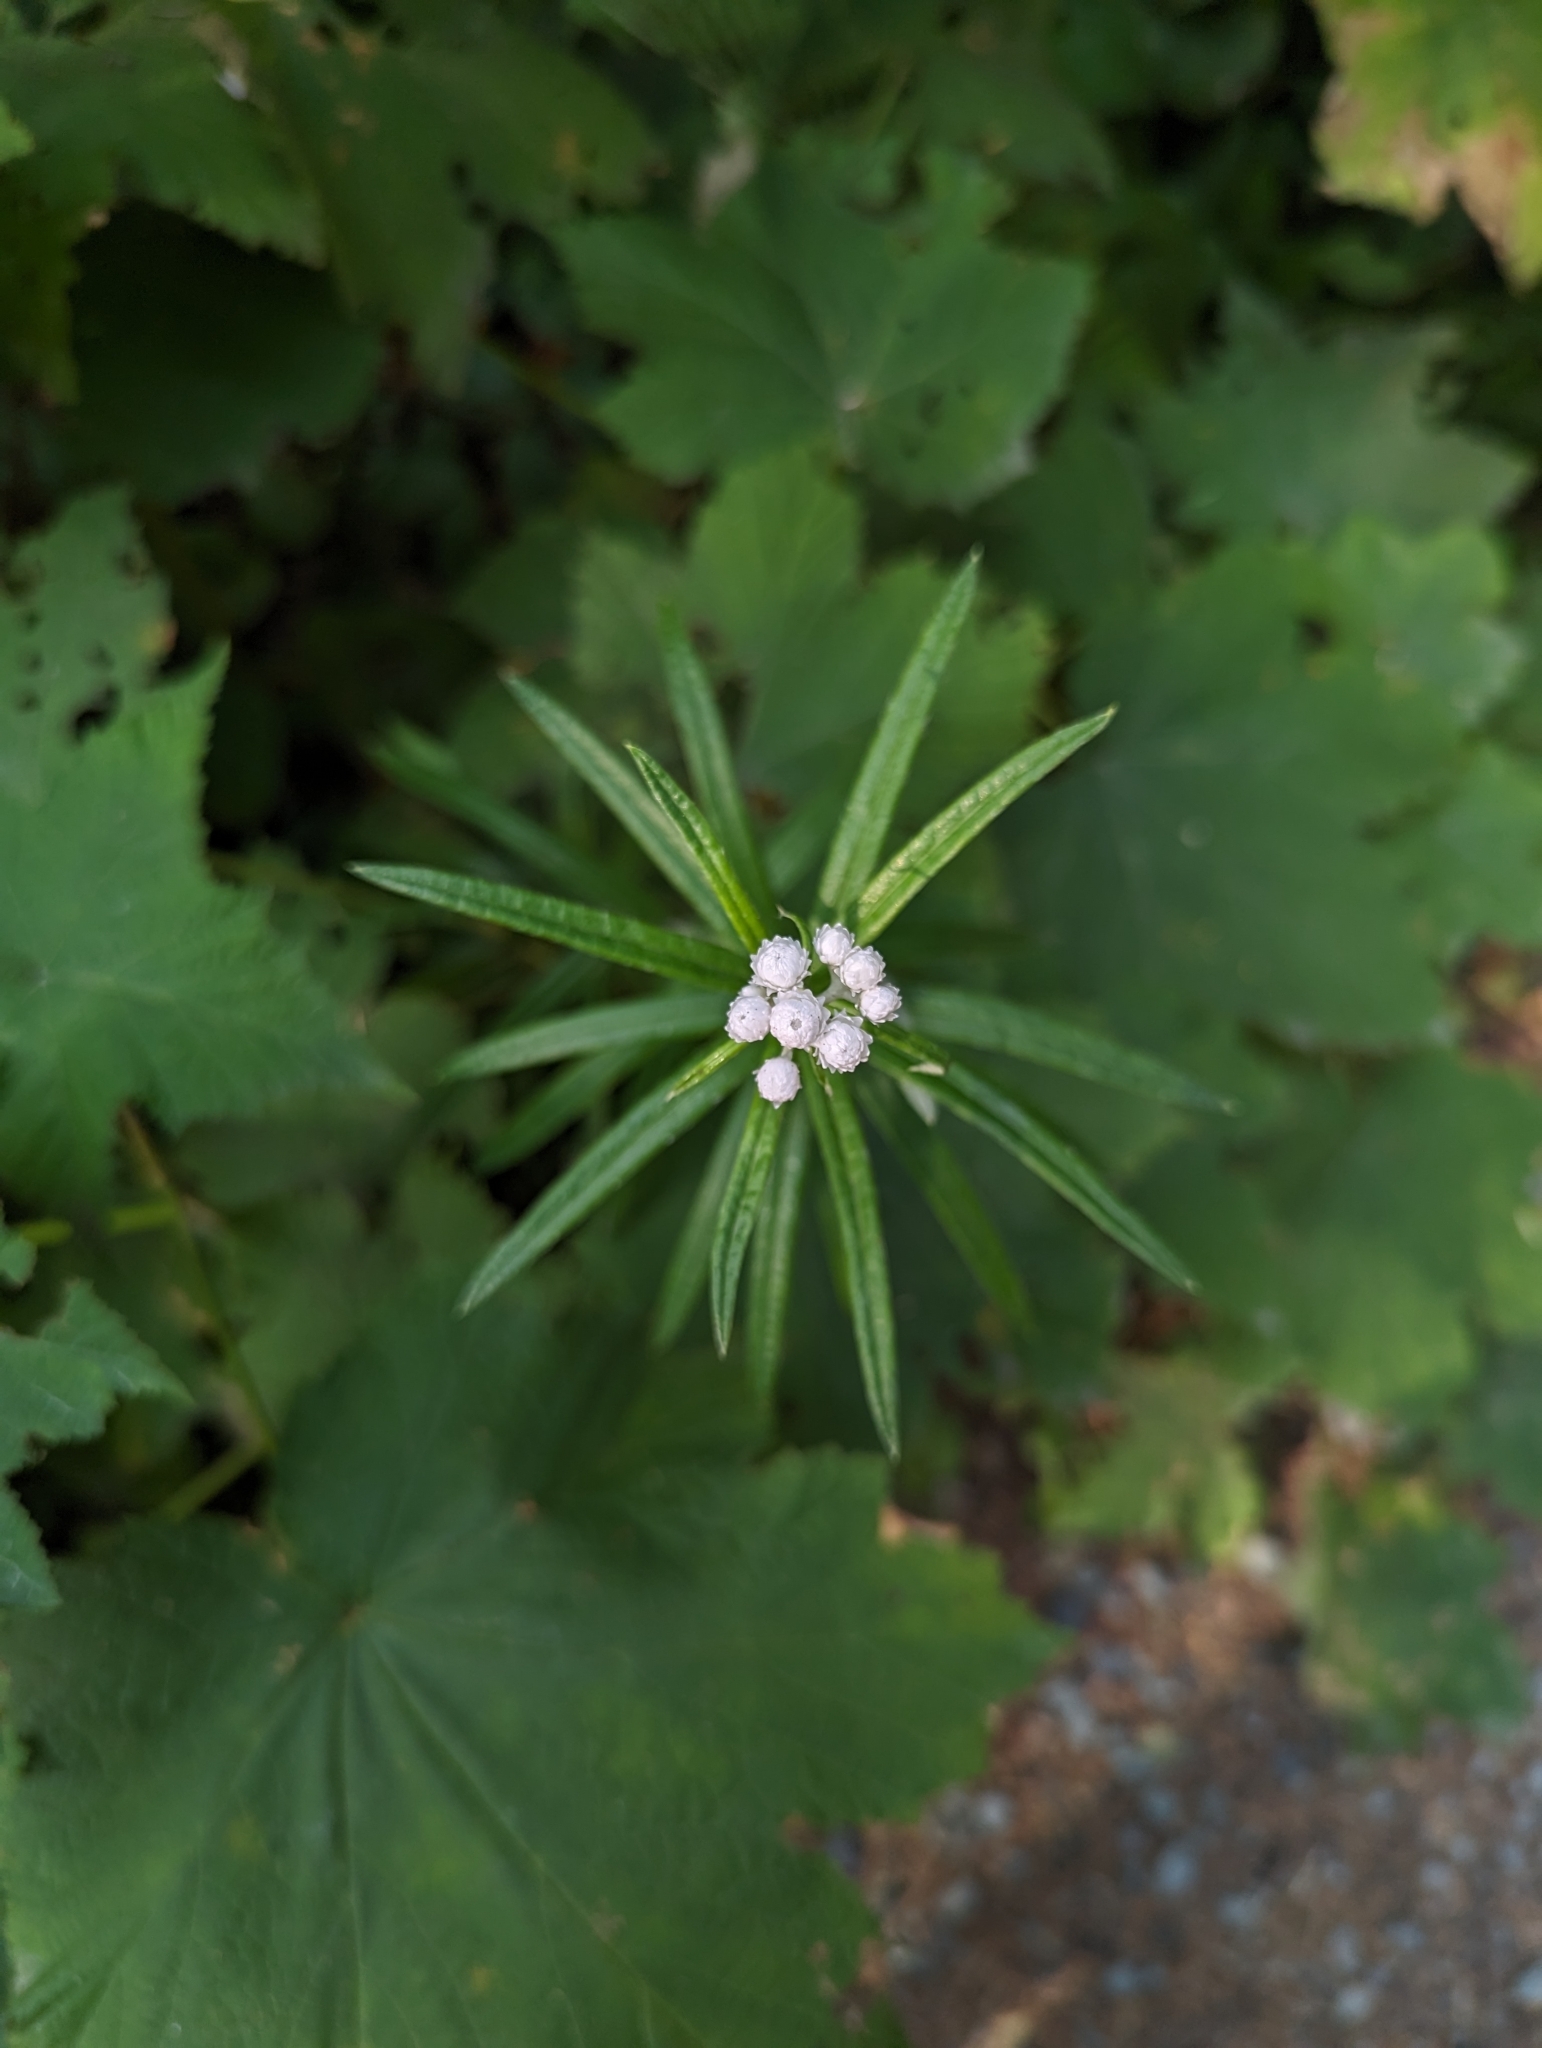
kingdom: Plantae
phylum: Tracheophyta
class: Magnoliopsida
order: Asterales
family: Asteraceae
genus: Anaphalis
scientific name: Anaphalis margaritacea
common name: Pearly everlasting
